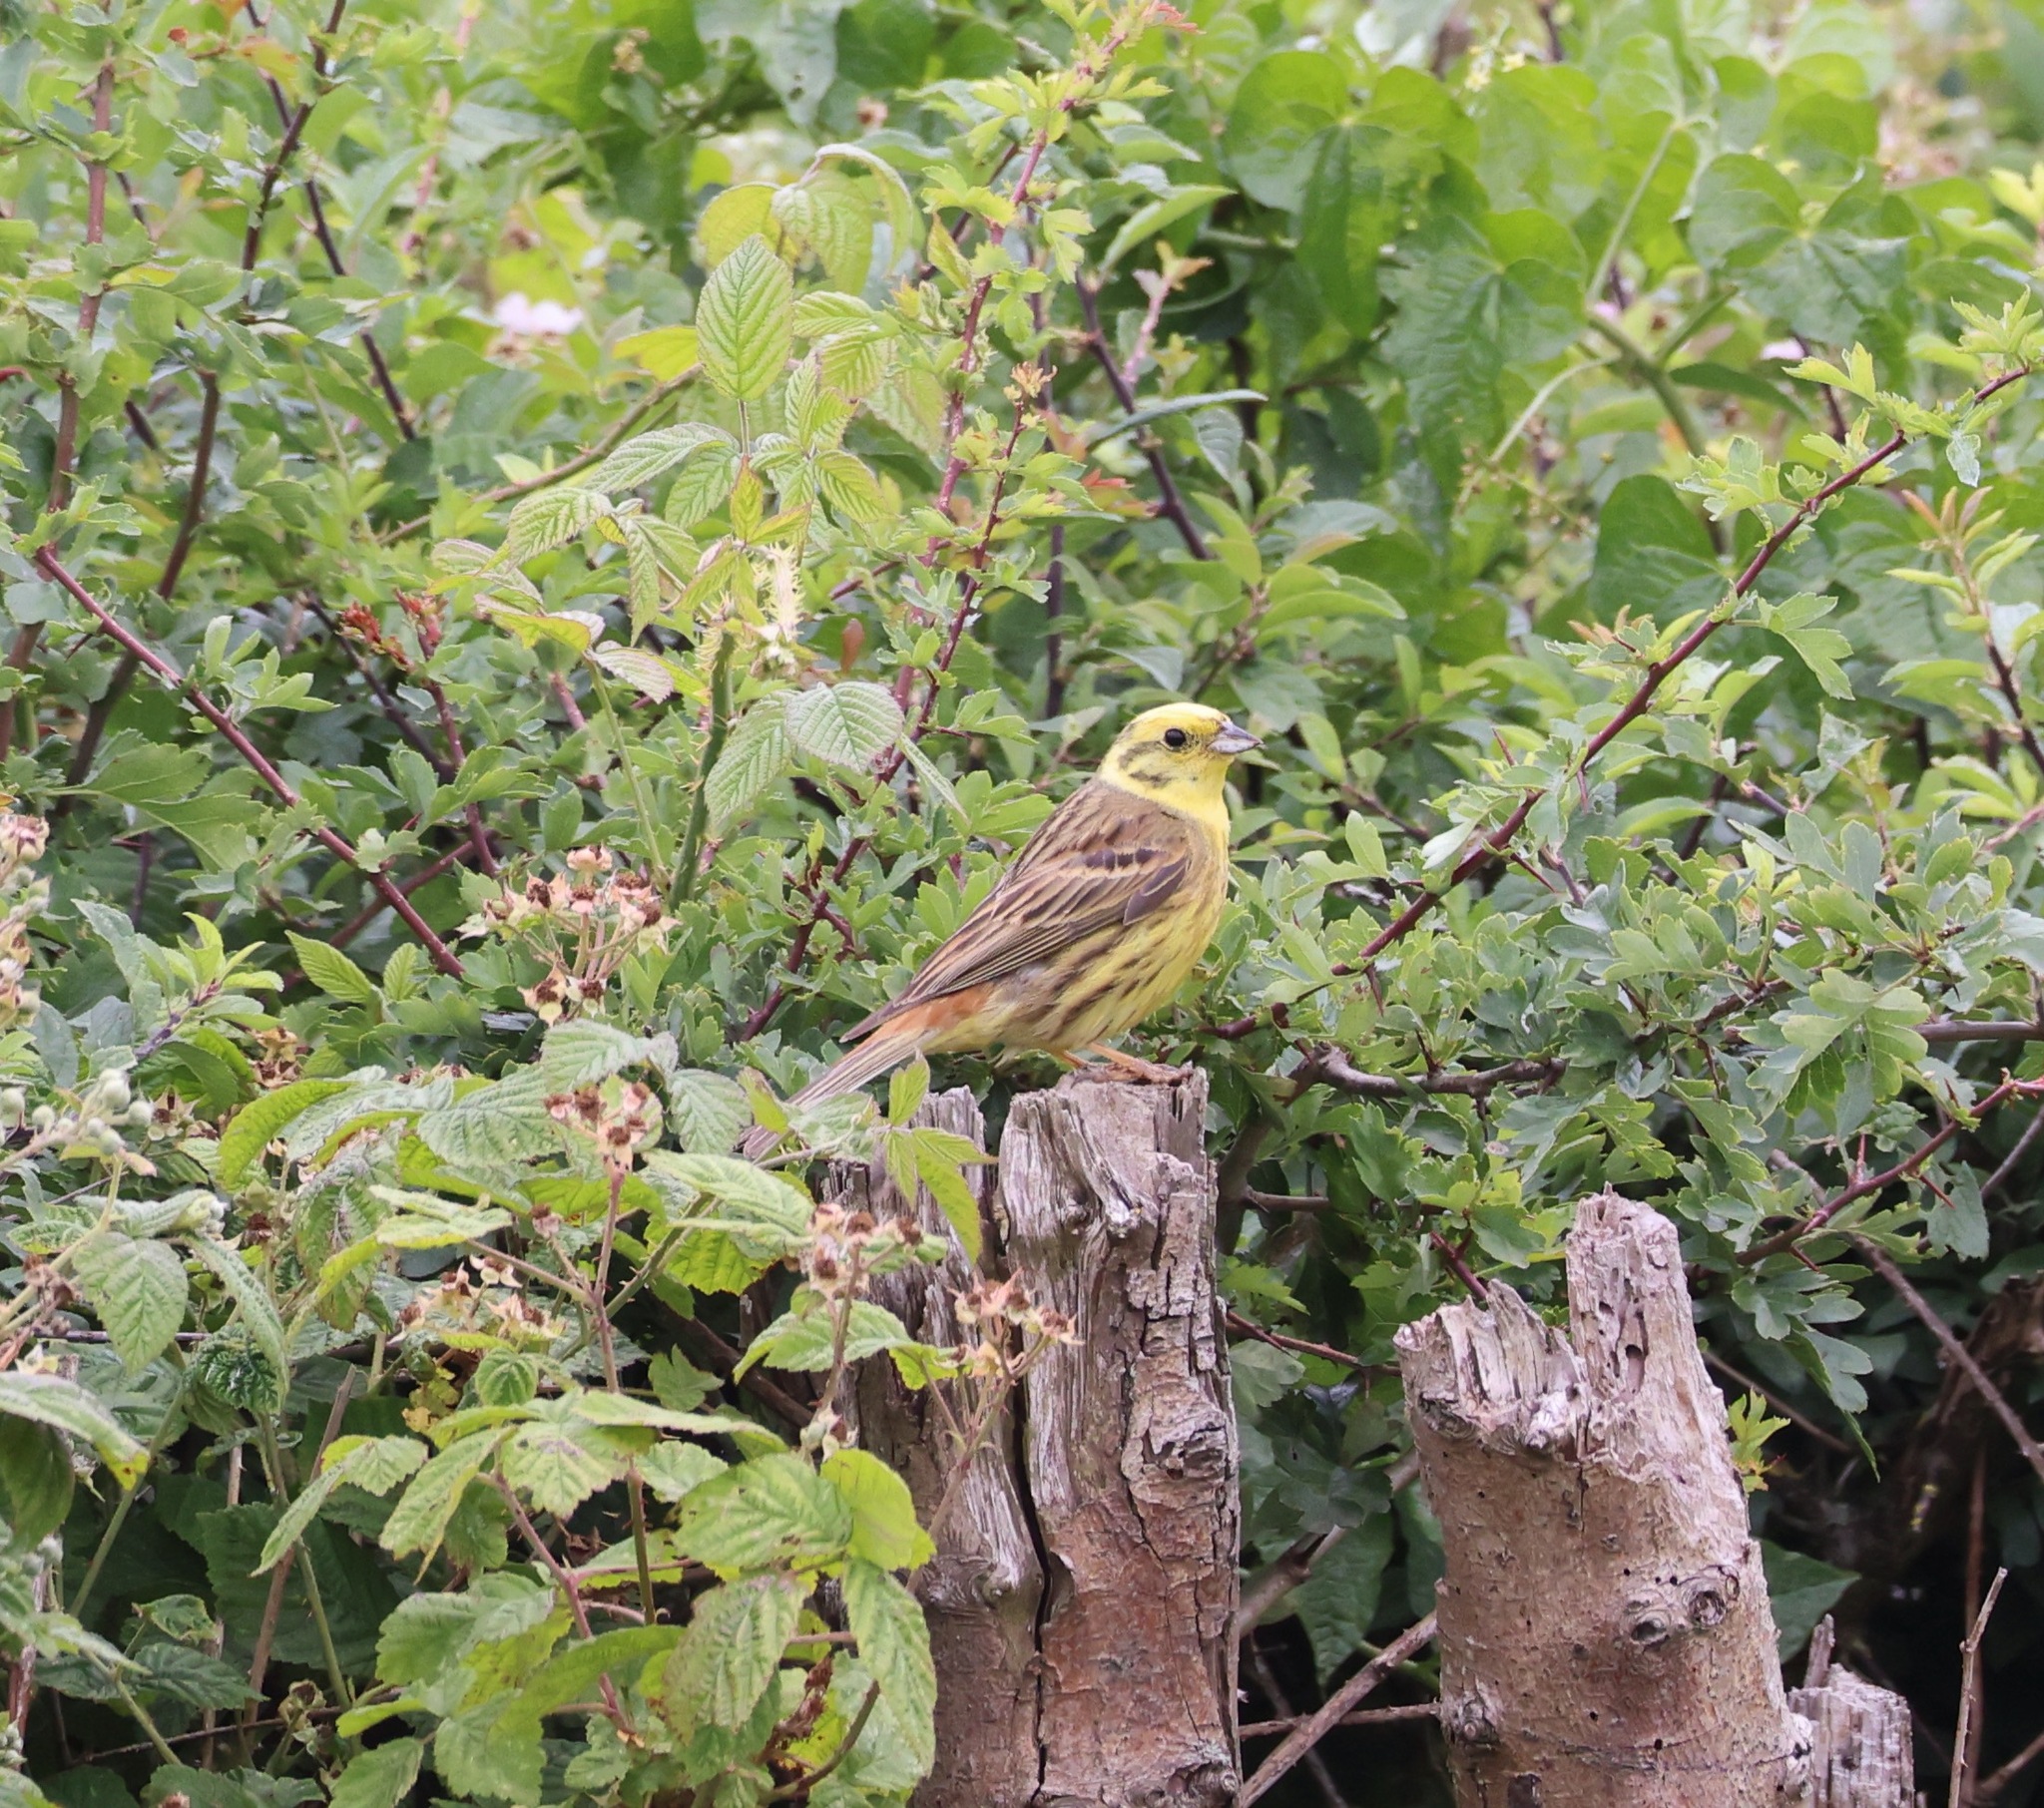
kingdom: Animalia
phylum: Chordata
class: Aves
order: Passeriformes
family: Emberizidae
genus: Emberiza
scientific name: Emberiza citrinella
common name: Yellowhammer
